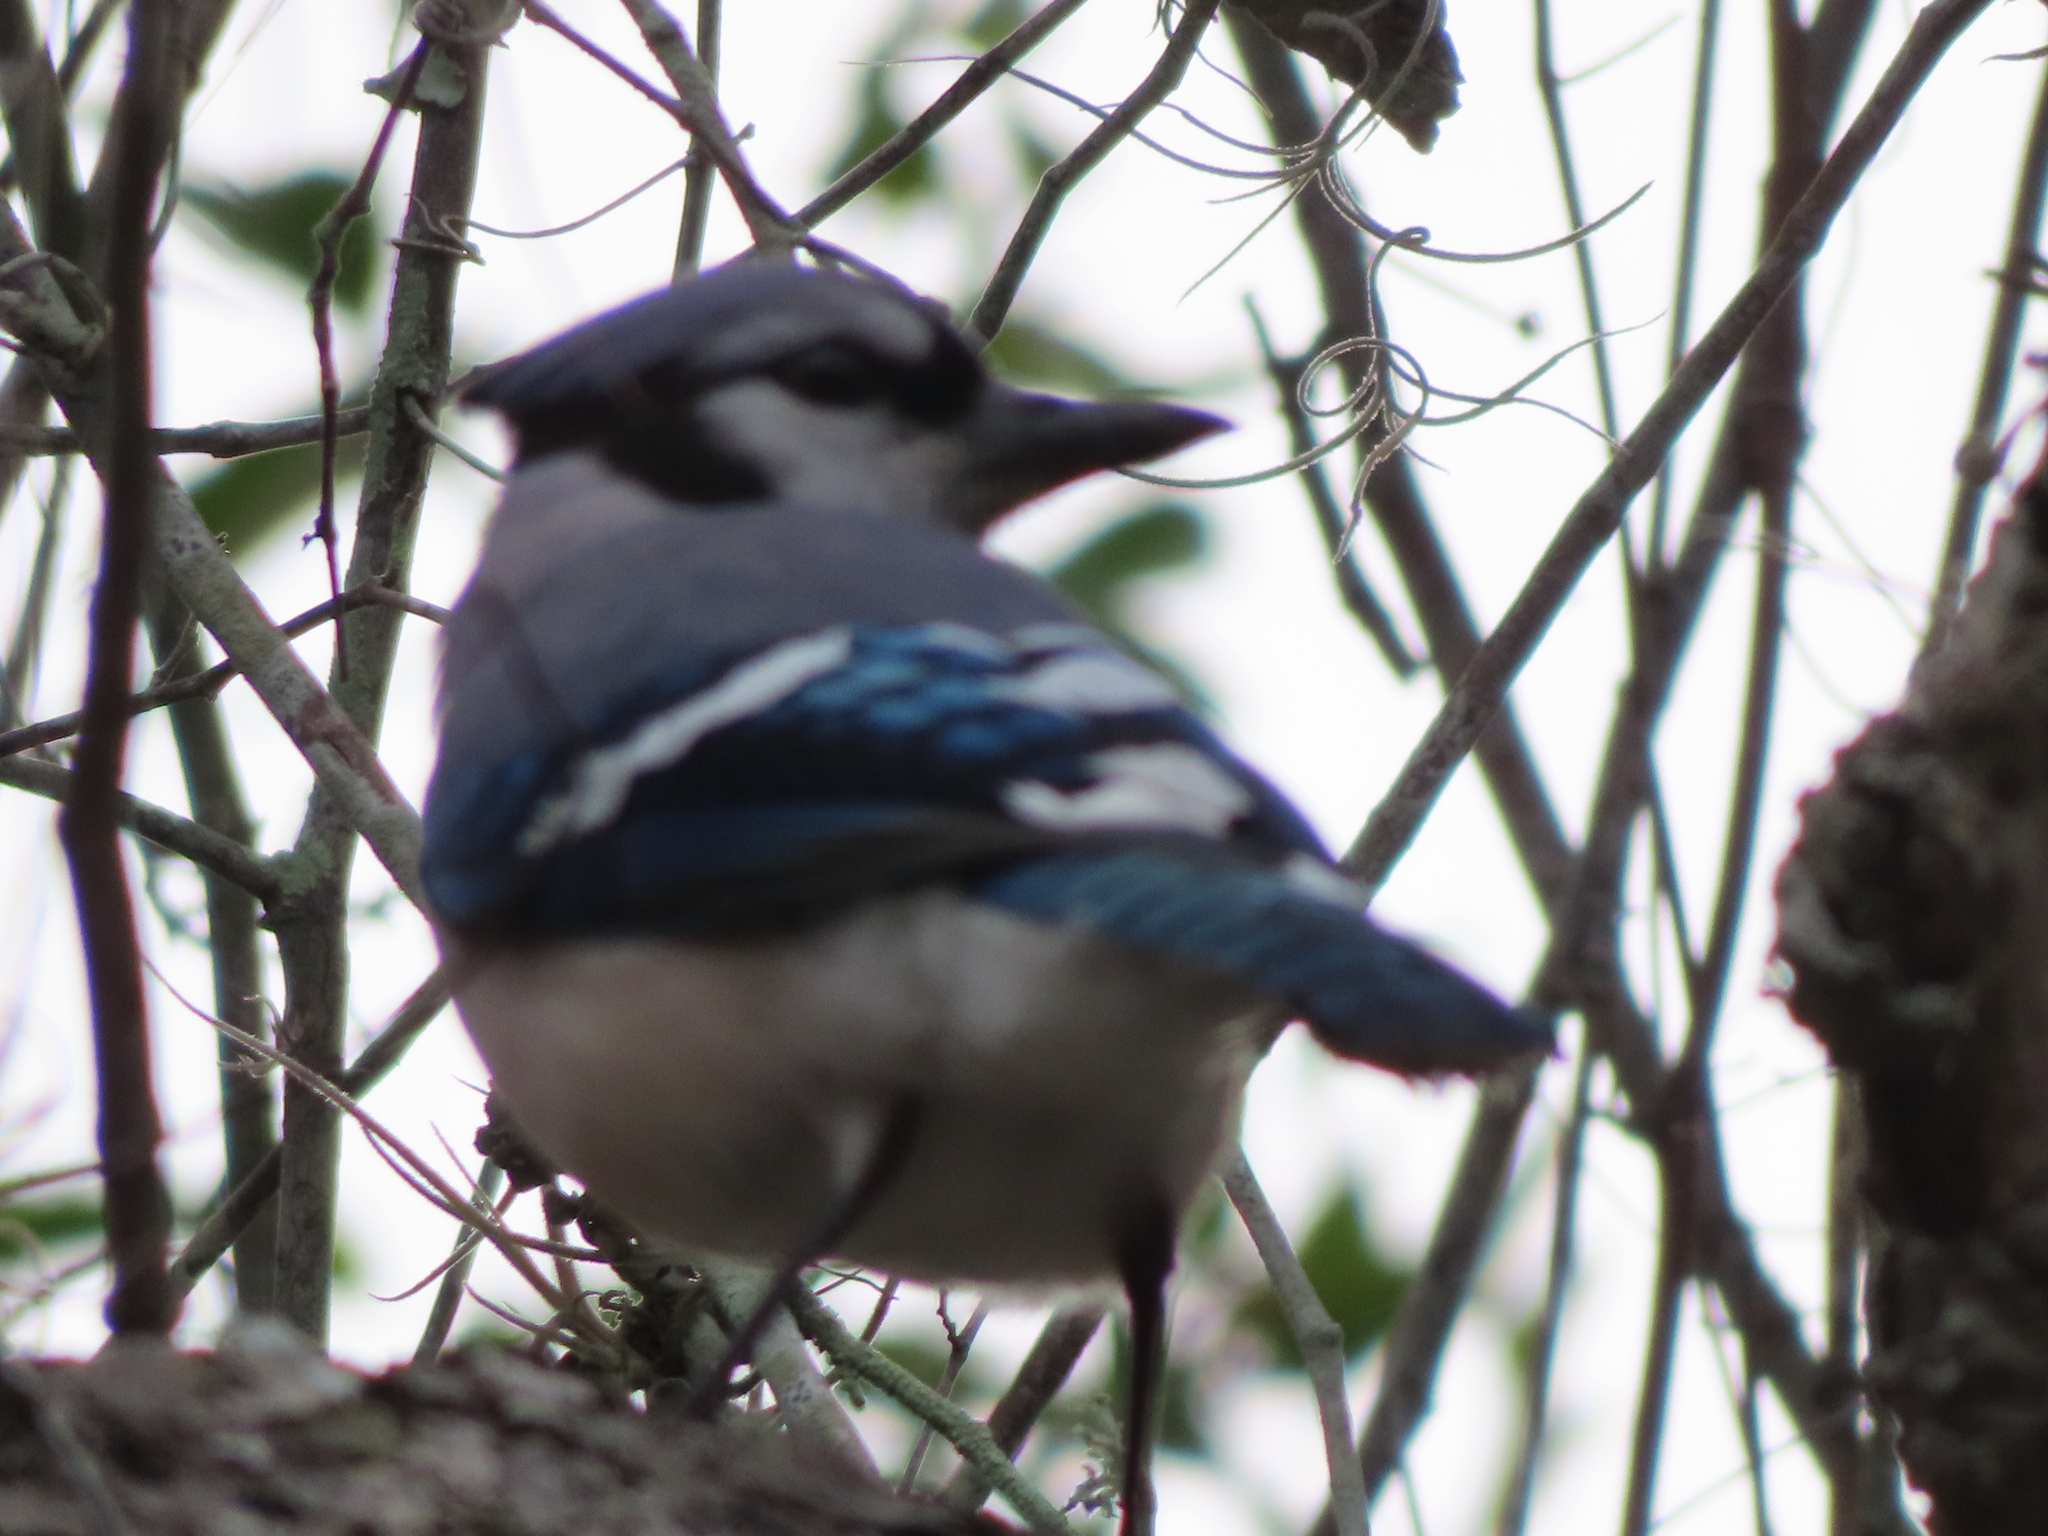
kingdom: Animalia
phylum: Chordata
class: Aves
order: Passeriformes
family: Corvidae
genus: Cyanocitta
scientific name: Cyanocitta cristata
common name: Blue jay
